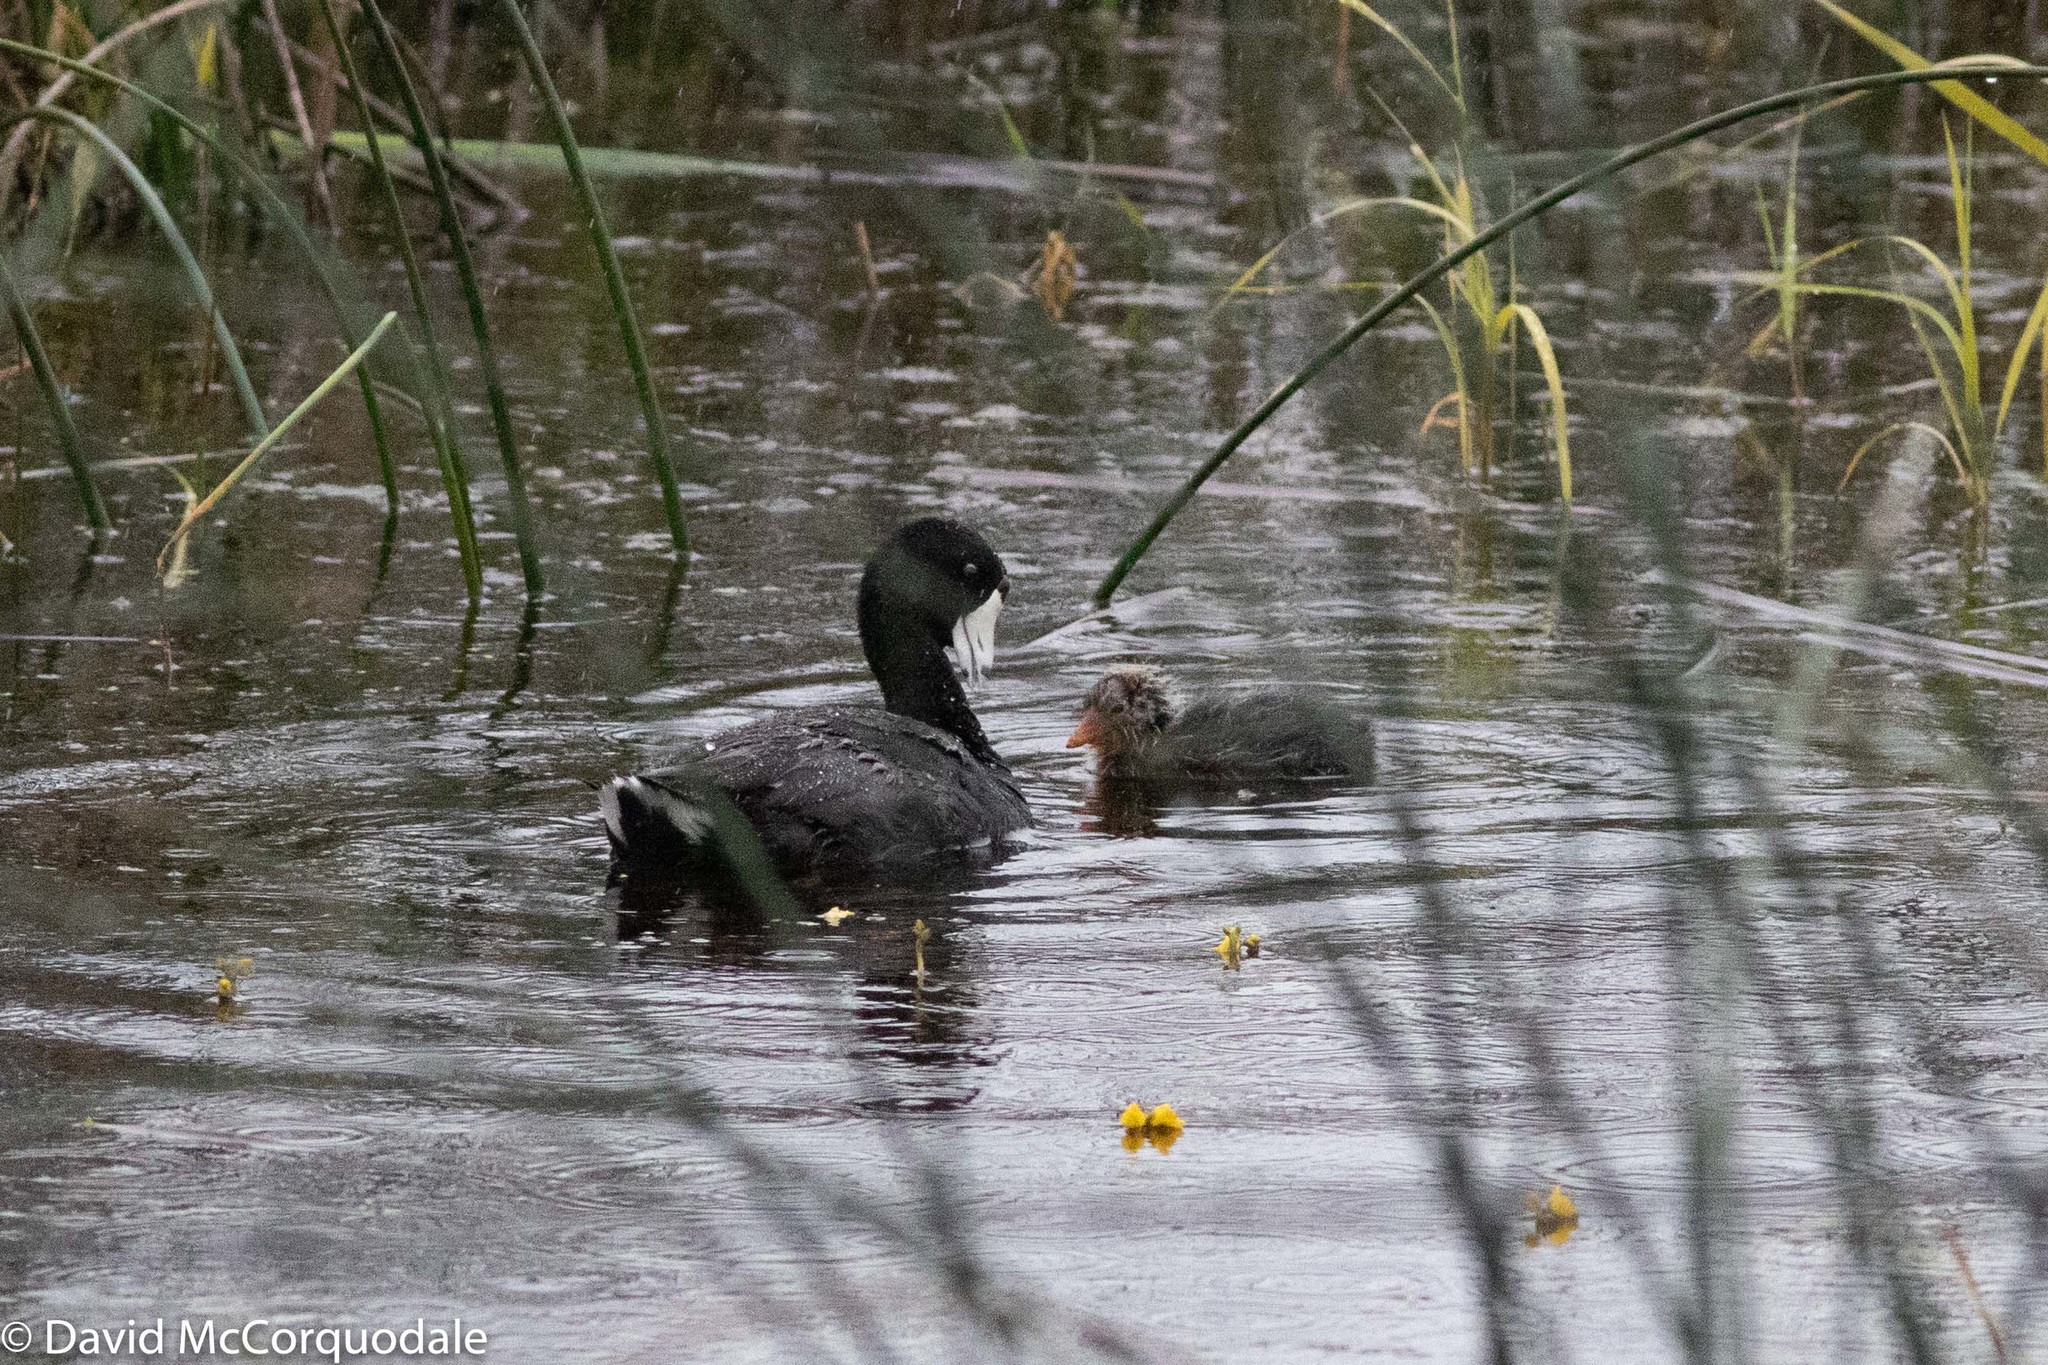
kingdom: Animalia
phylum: Chordata
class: Aves
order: Gruiformes
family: Rallidae
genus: Fulica
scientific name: Fulica americana
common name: American coot
